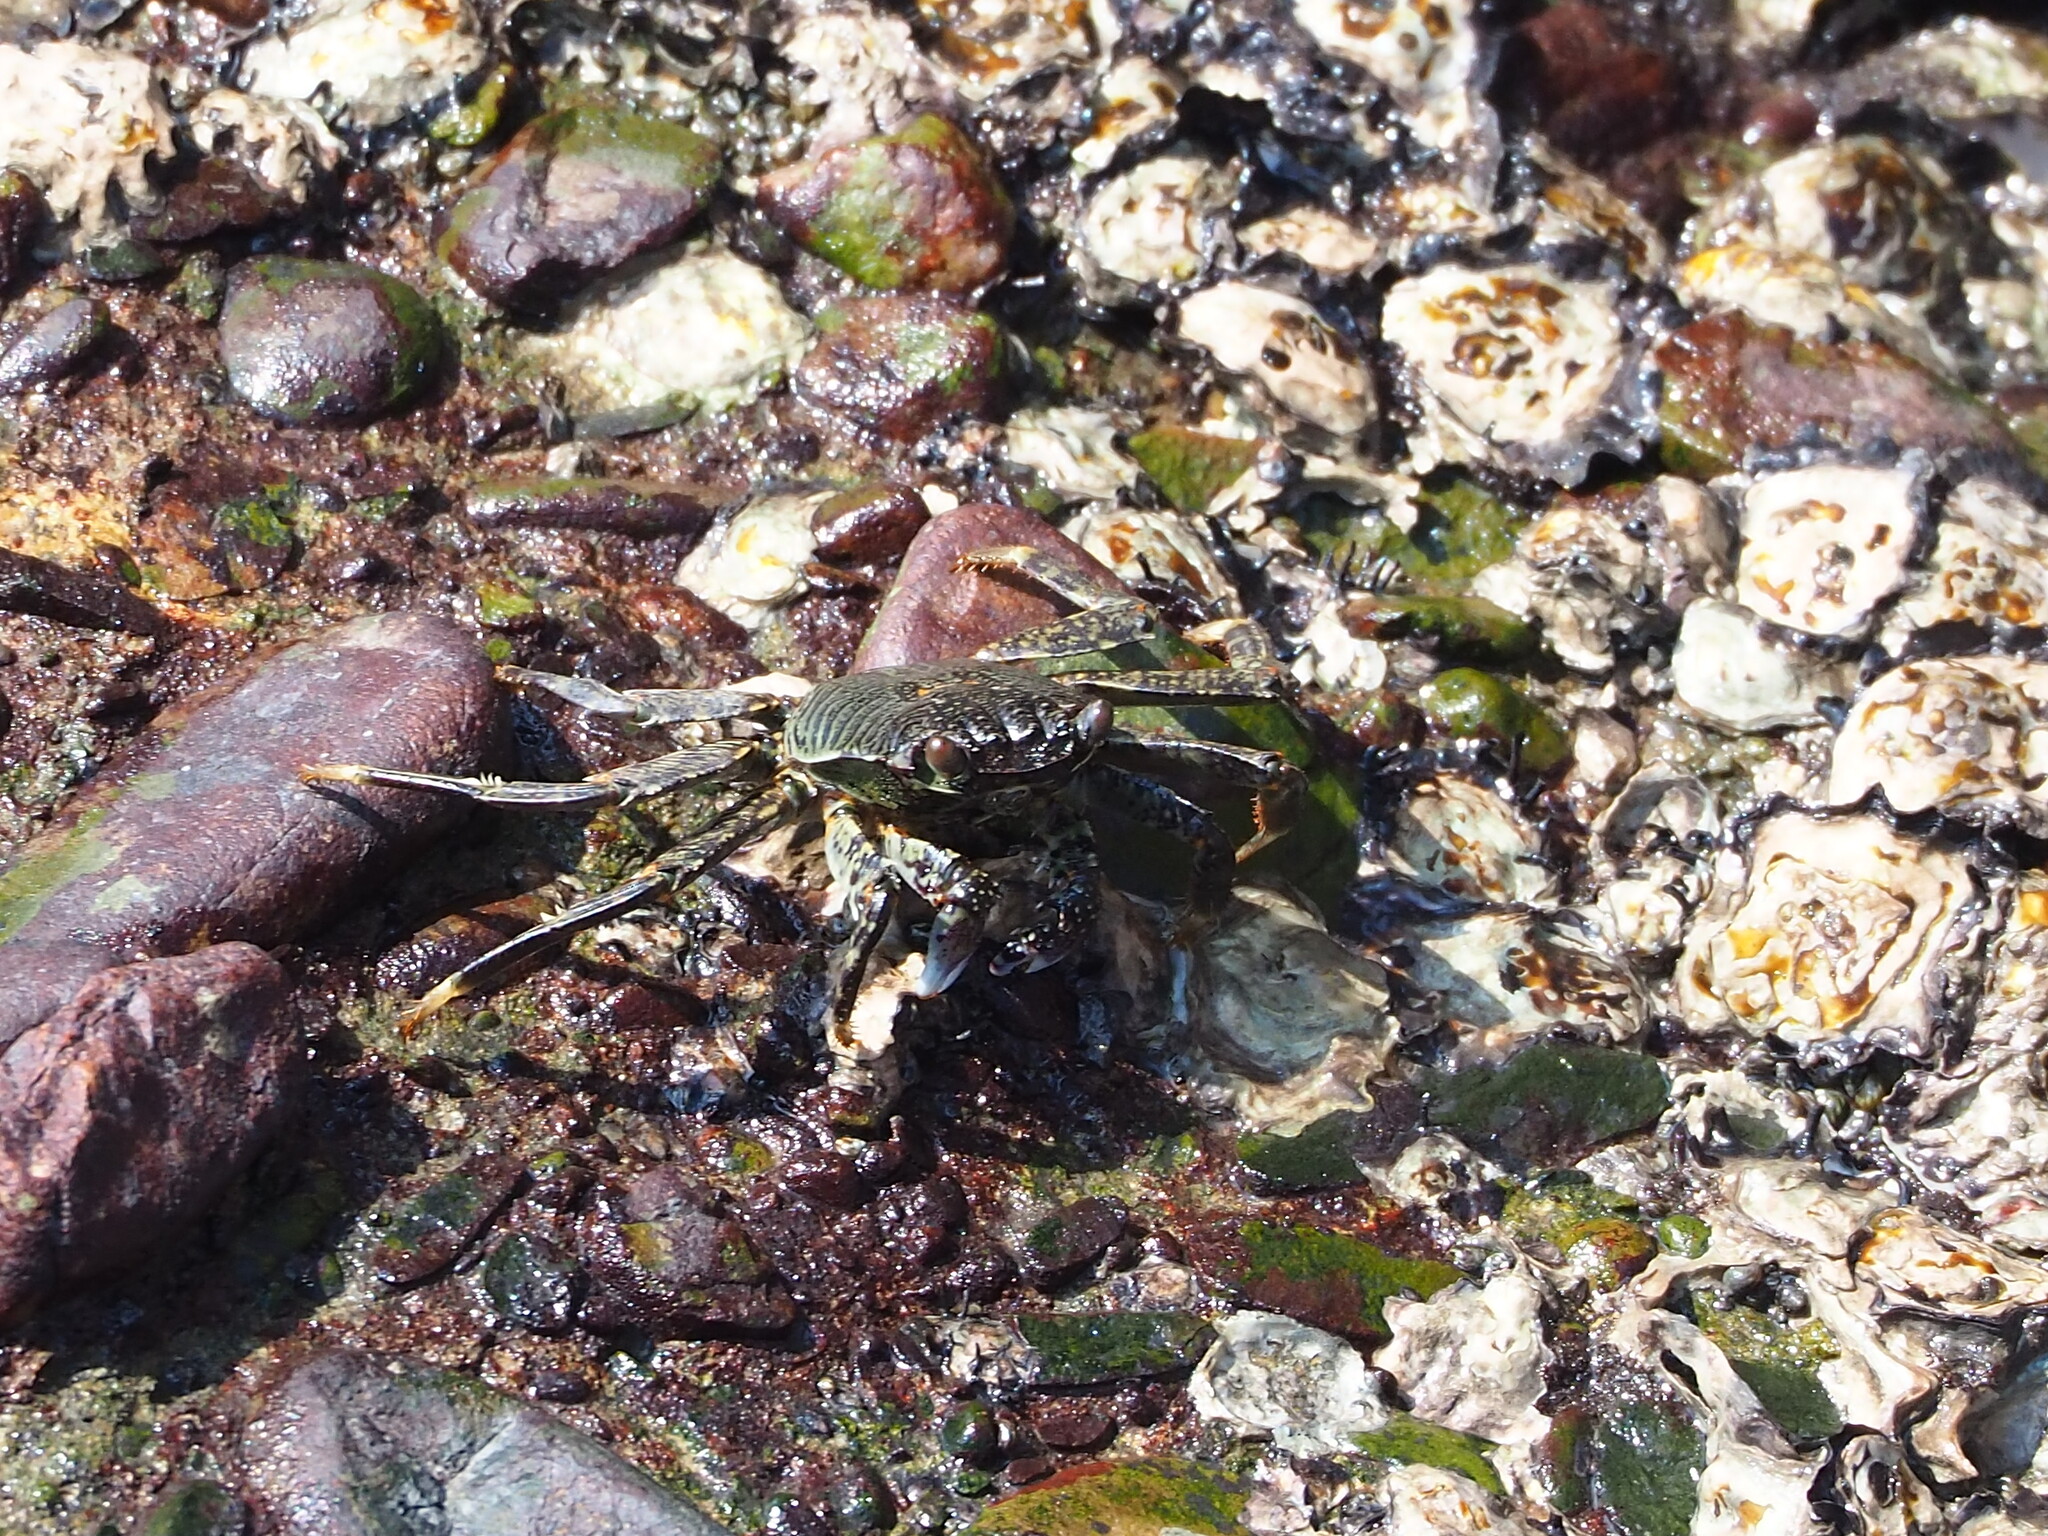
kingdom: Animalia
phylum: Arthropoda
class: Malacostraca
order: Decapoda
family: Grapsidae
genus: Grapsus
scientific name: Grapsus albolineatus
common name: Mottled lightfoot crab
